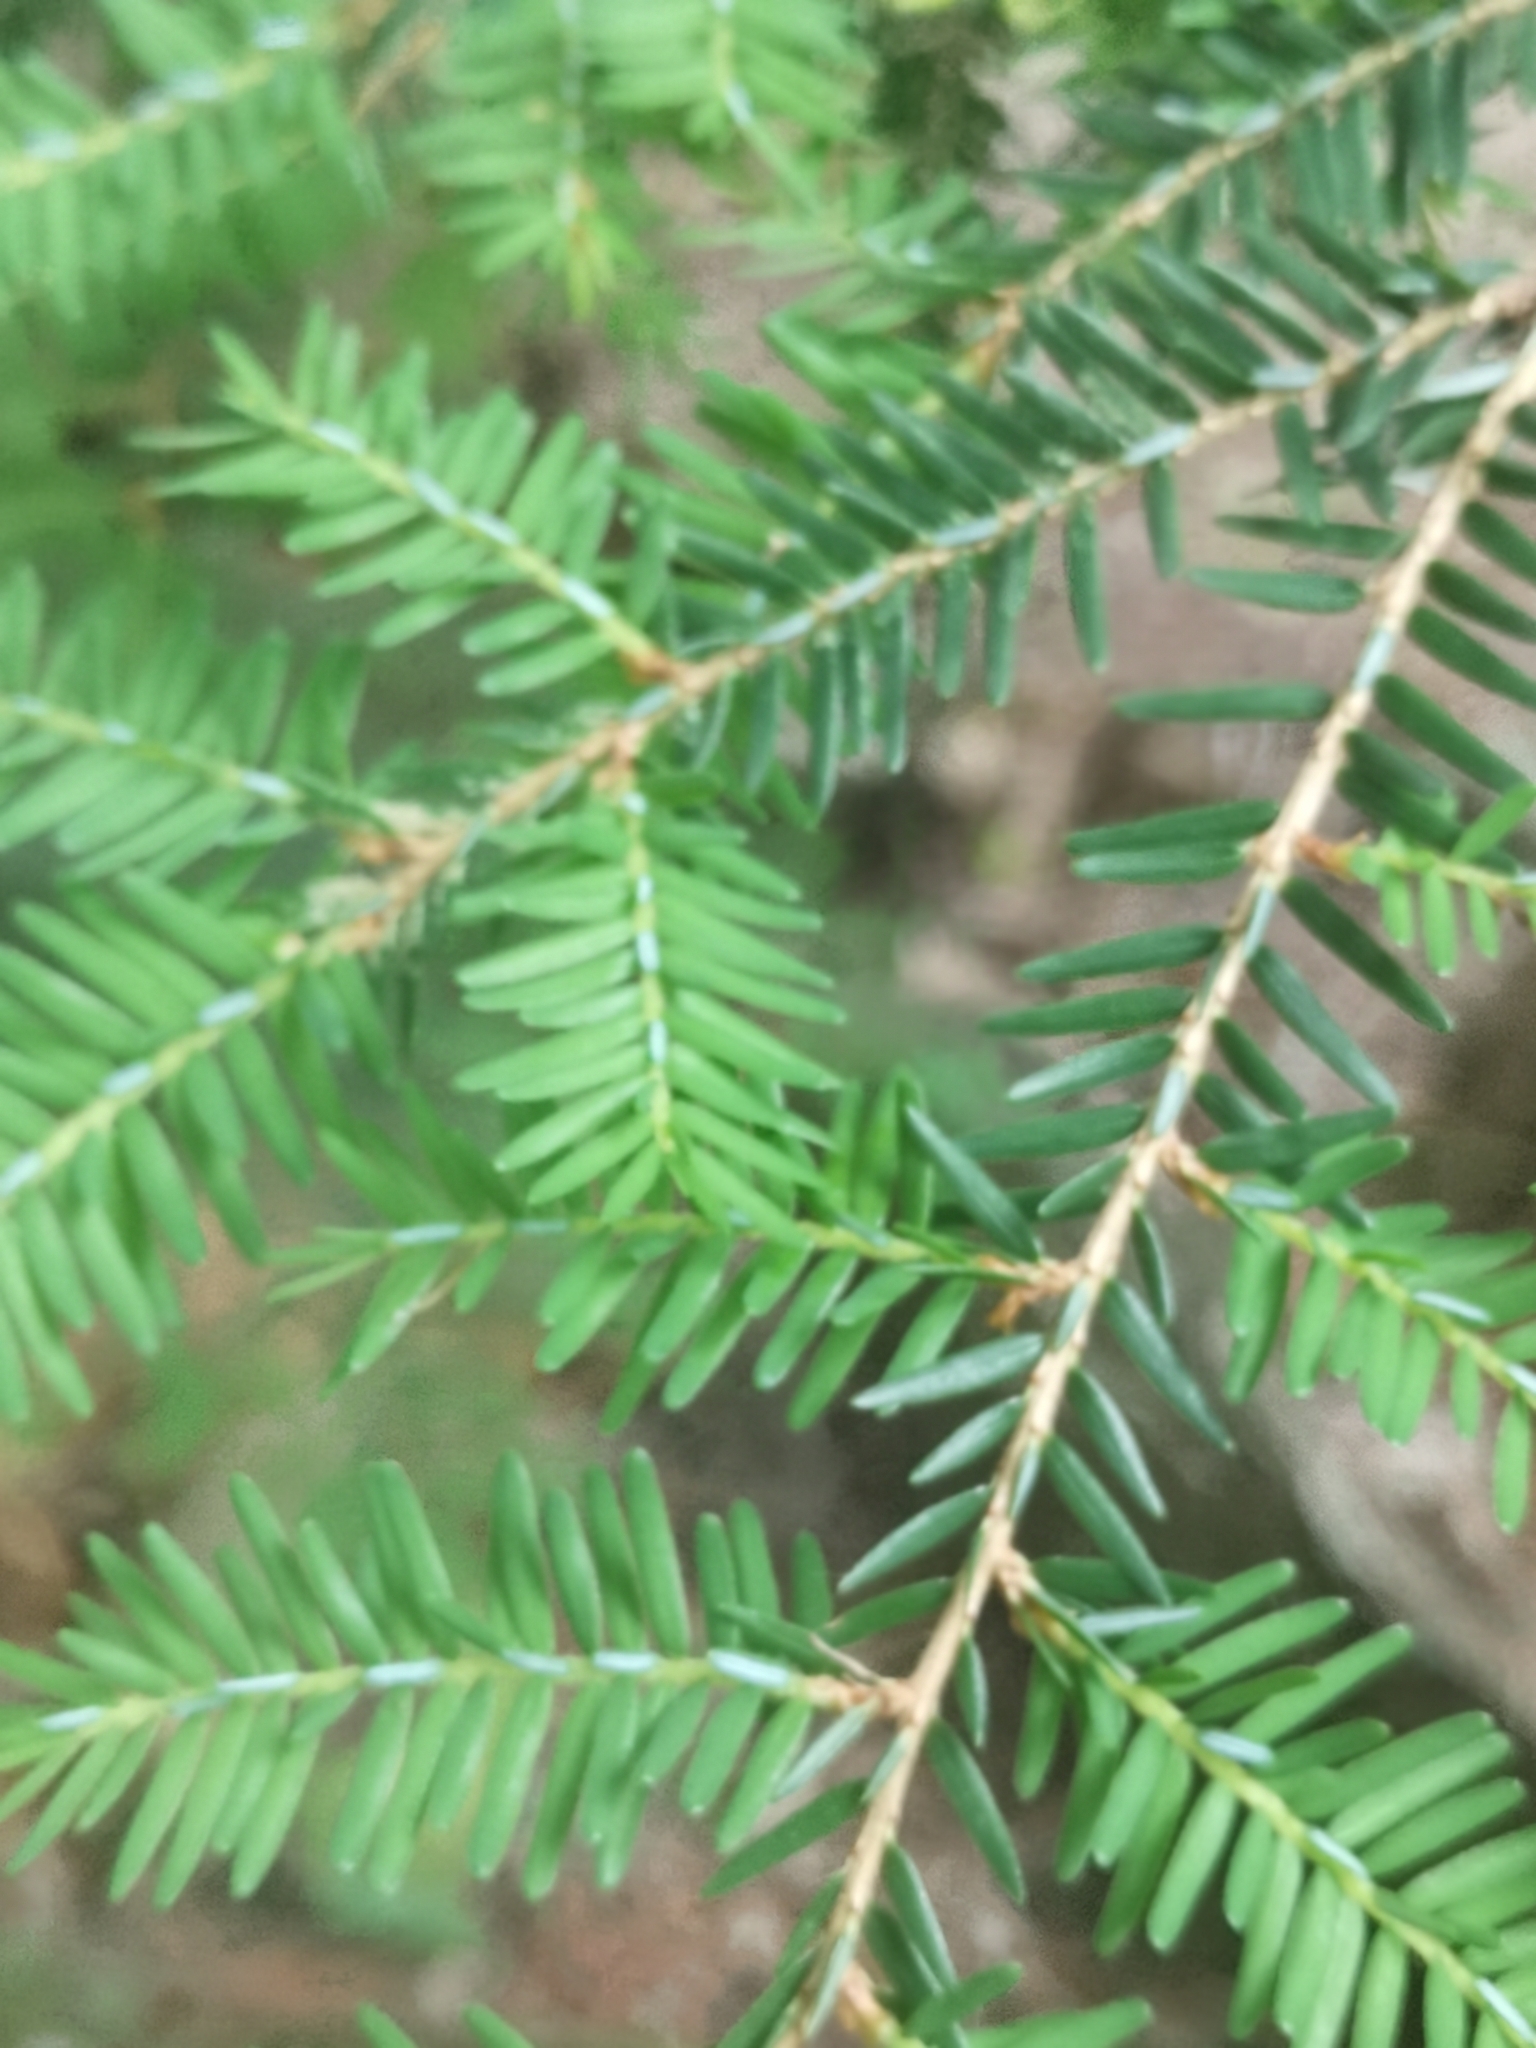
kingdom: Plantae
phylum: Tracheophyta
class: Pinopsida
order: Pinales
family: Pinaceae
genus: Tsuga
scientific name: Tsuga canadensis
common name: Eastern hemlock
